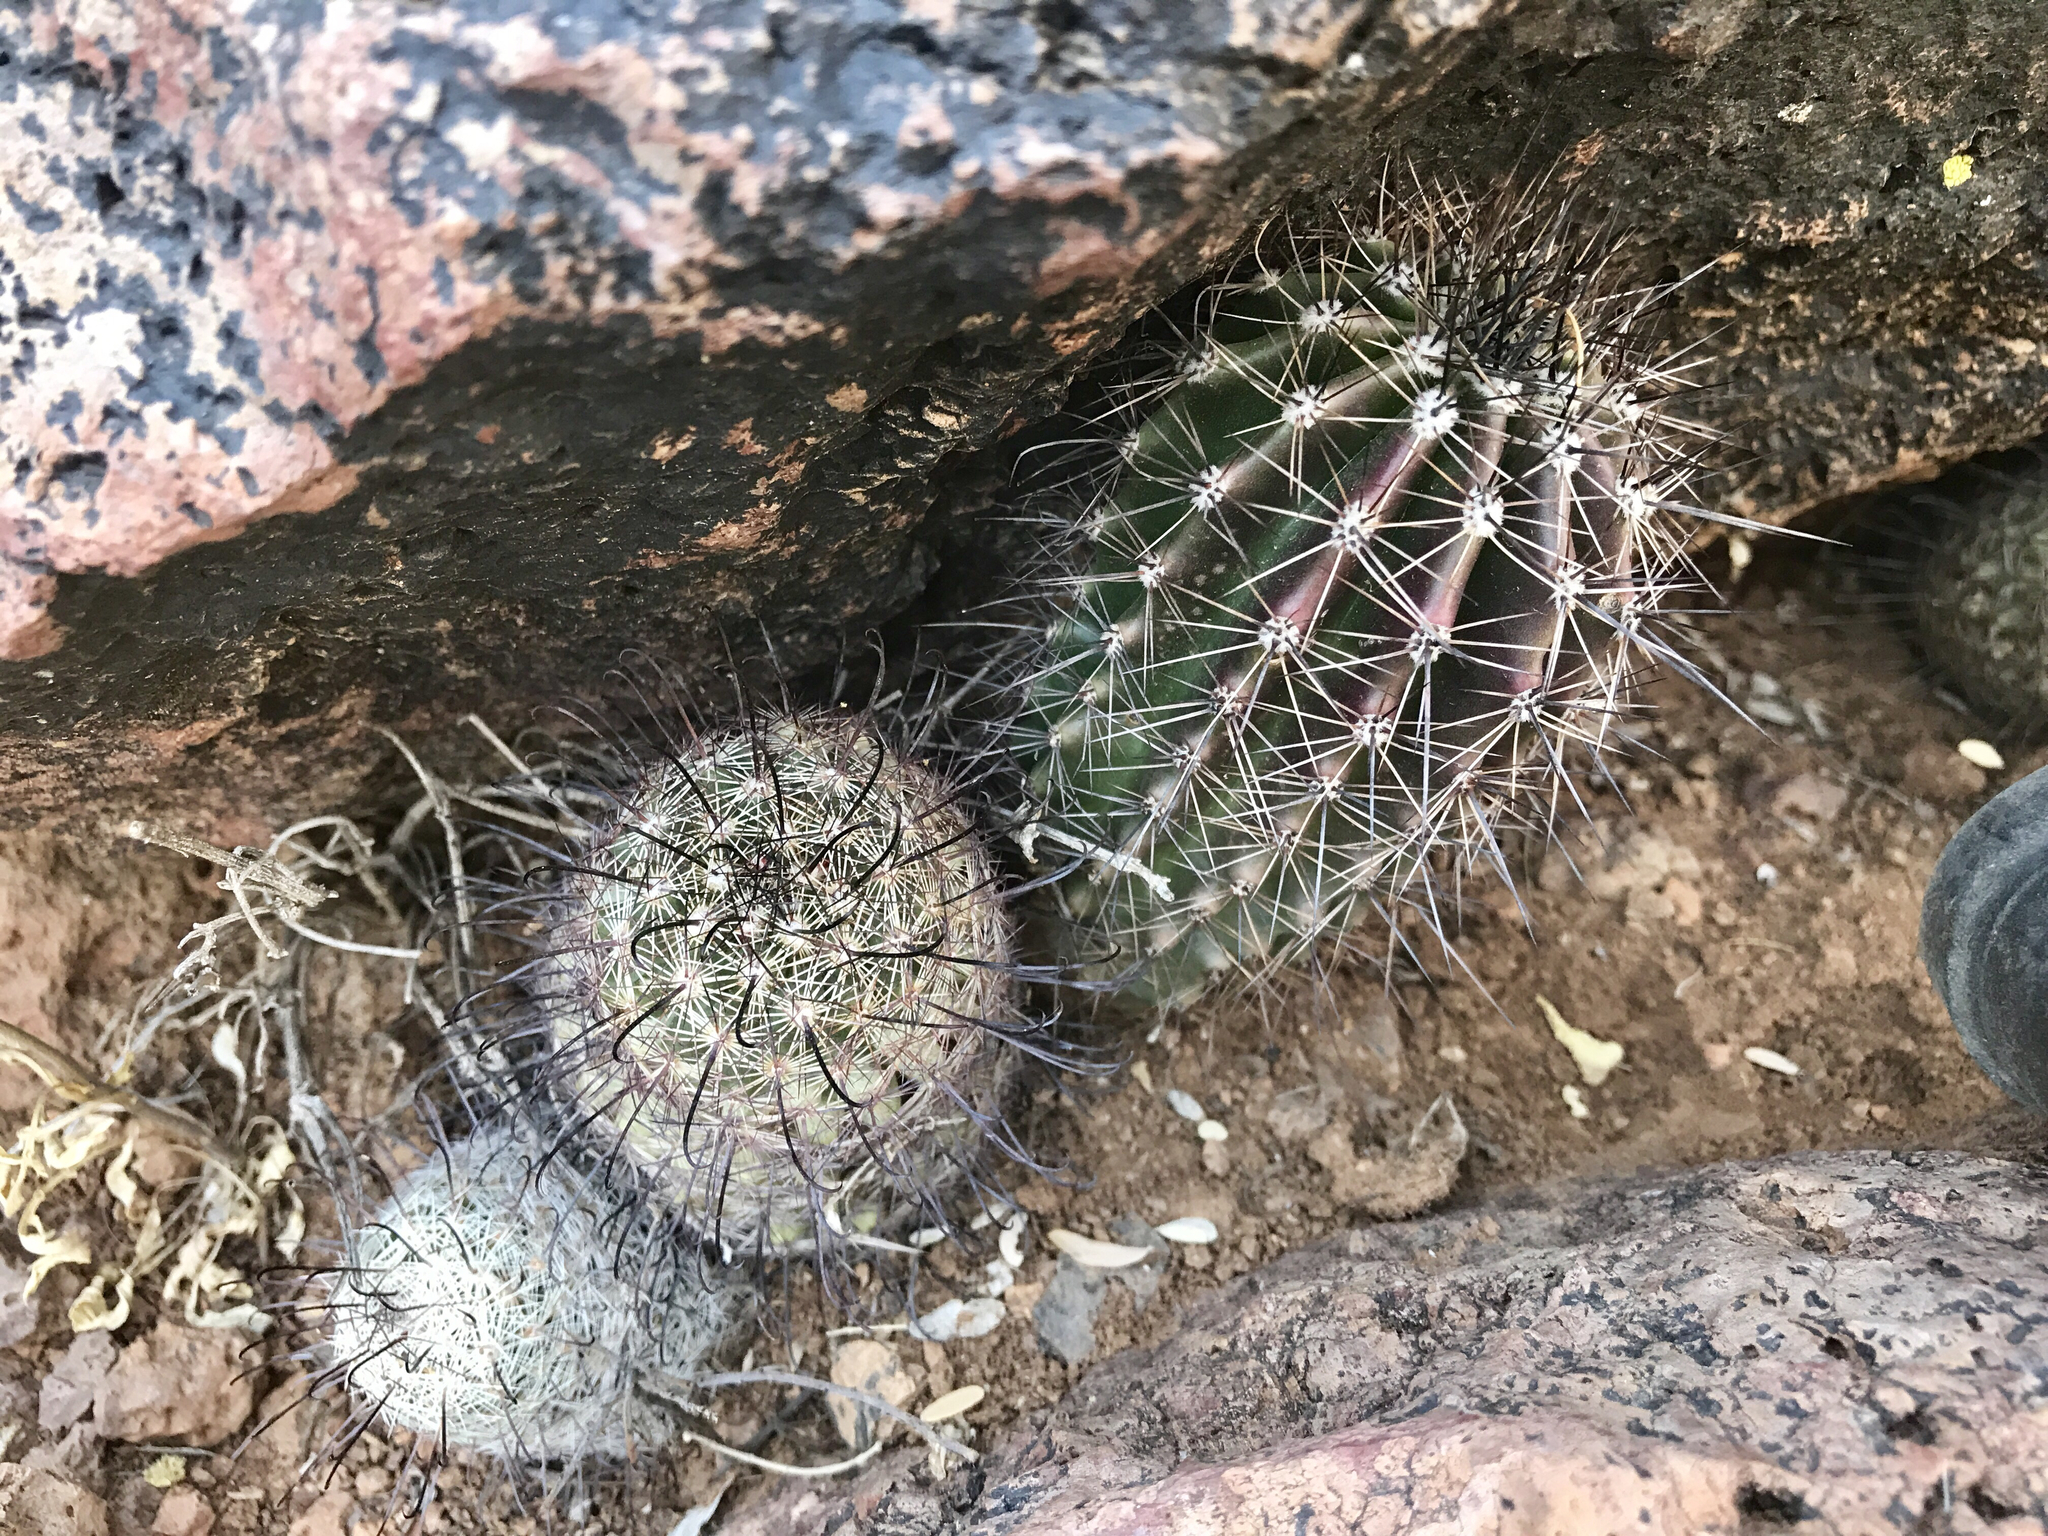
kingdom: Plantae
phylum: Tracheophyta
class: Magnoliopsida
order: Caryophyllales
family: Cactaceae
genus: Carnegiea
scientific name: Carnegiea gigantea
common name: Saguaro
